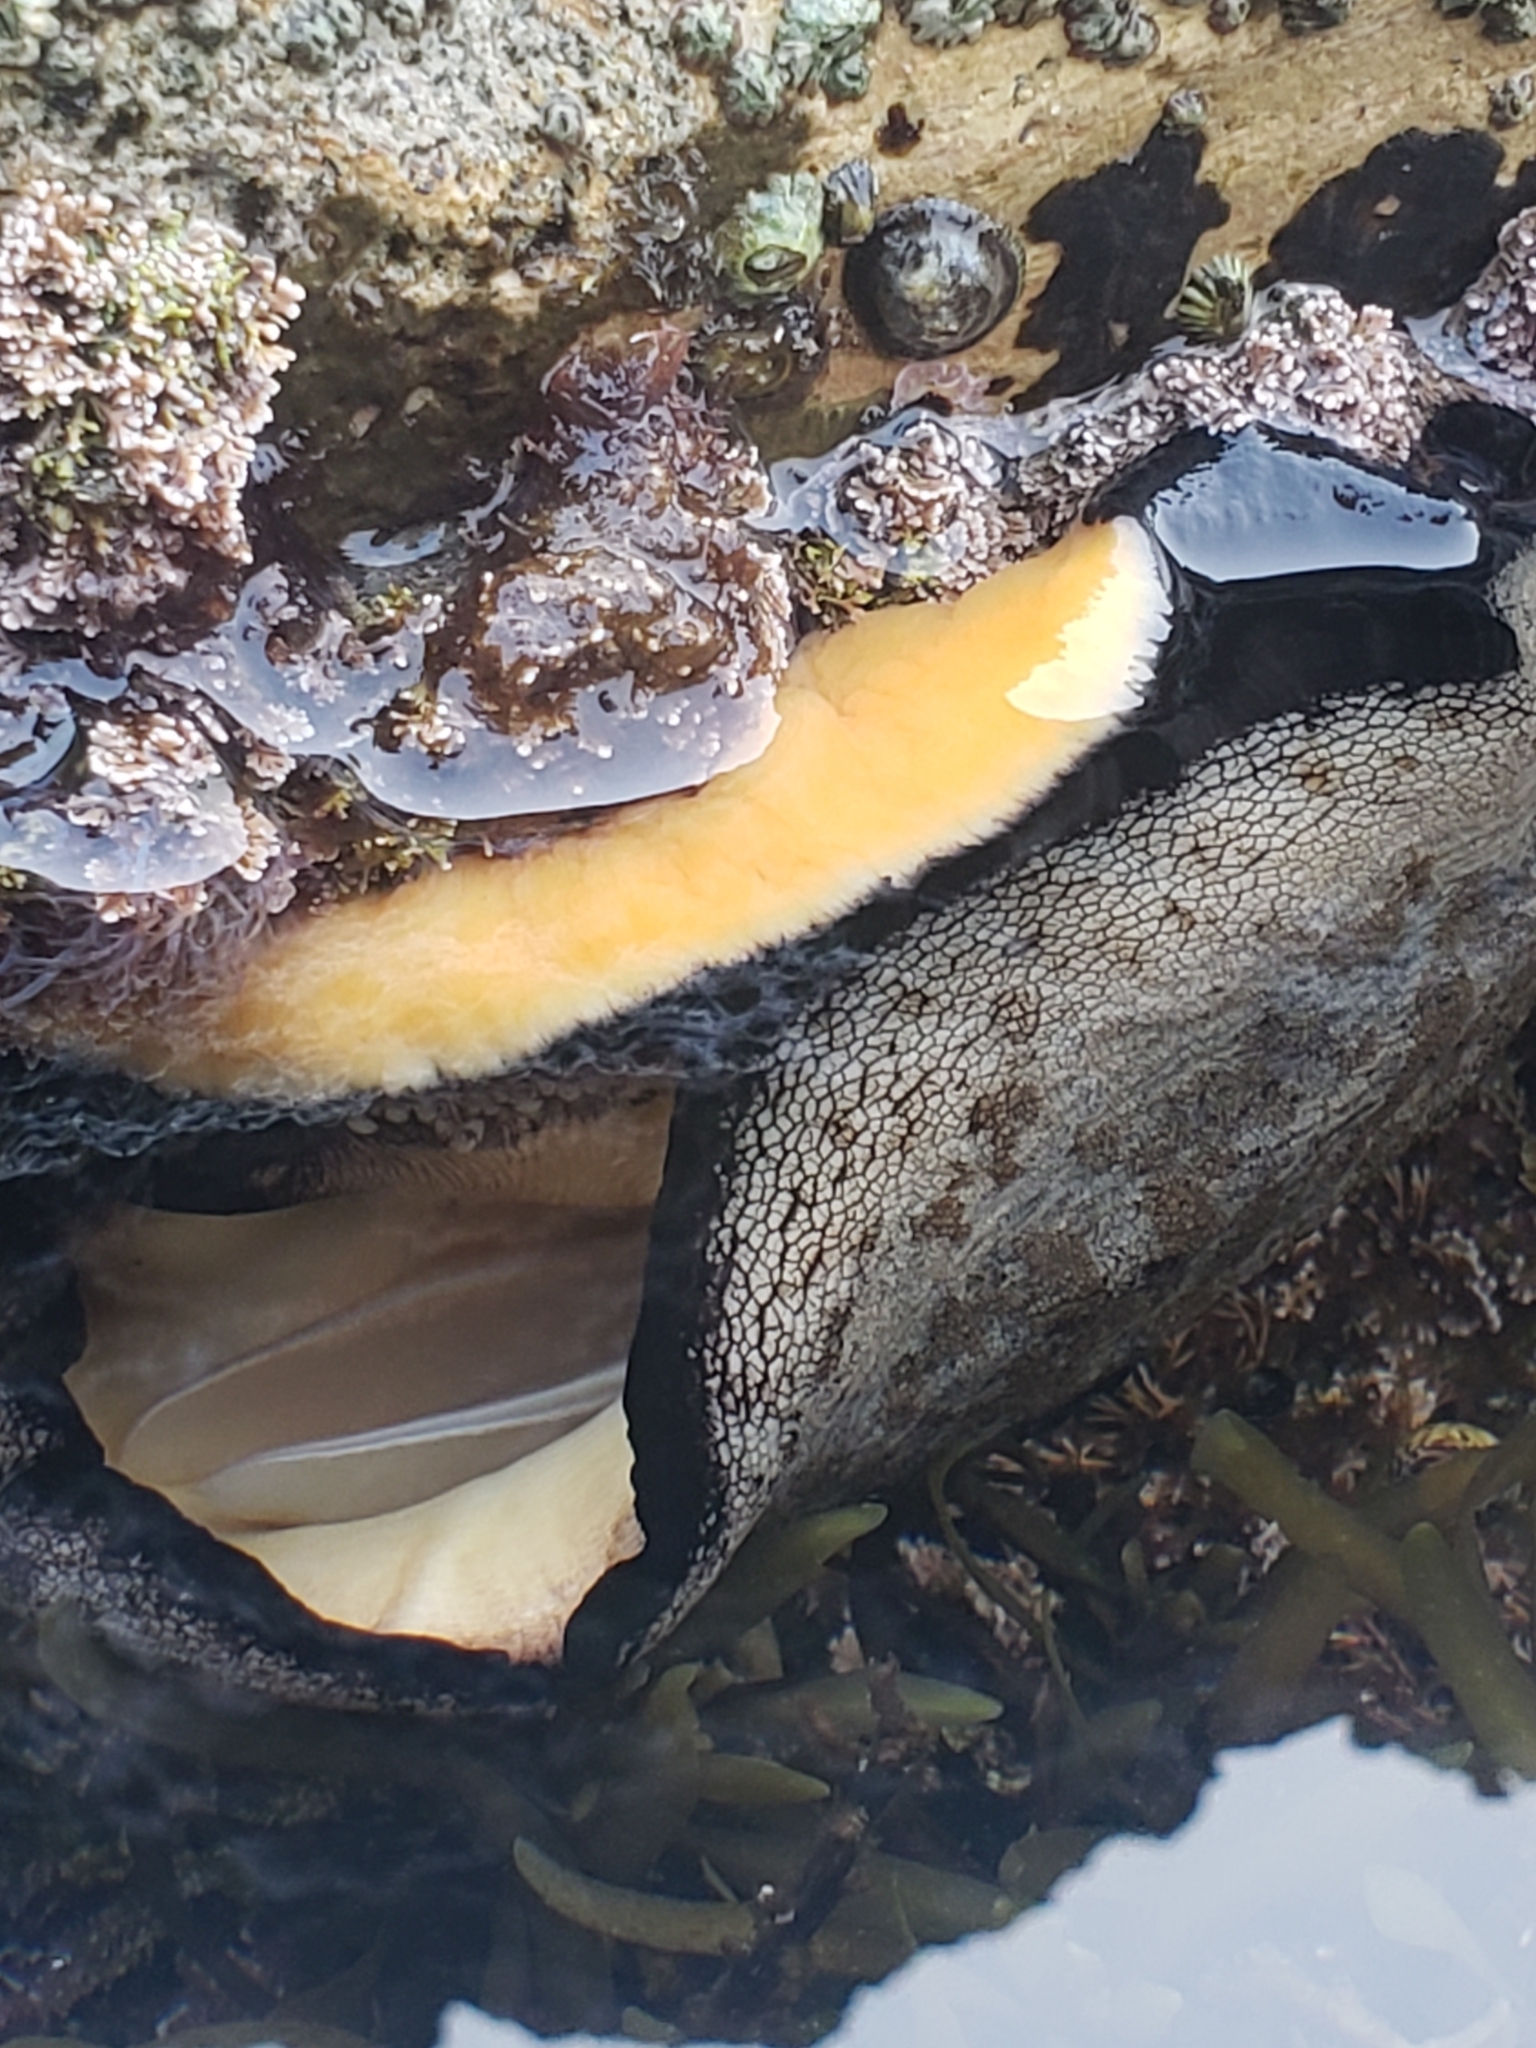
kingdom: Animalia
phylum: Mollusca
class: Gastropoda
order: Lepetellida
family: Fissurellidae
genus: Megathura
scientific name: Megathura crenulata
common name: Giant keyhole limpet
